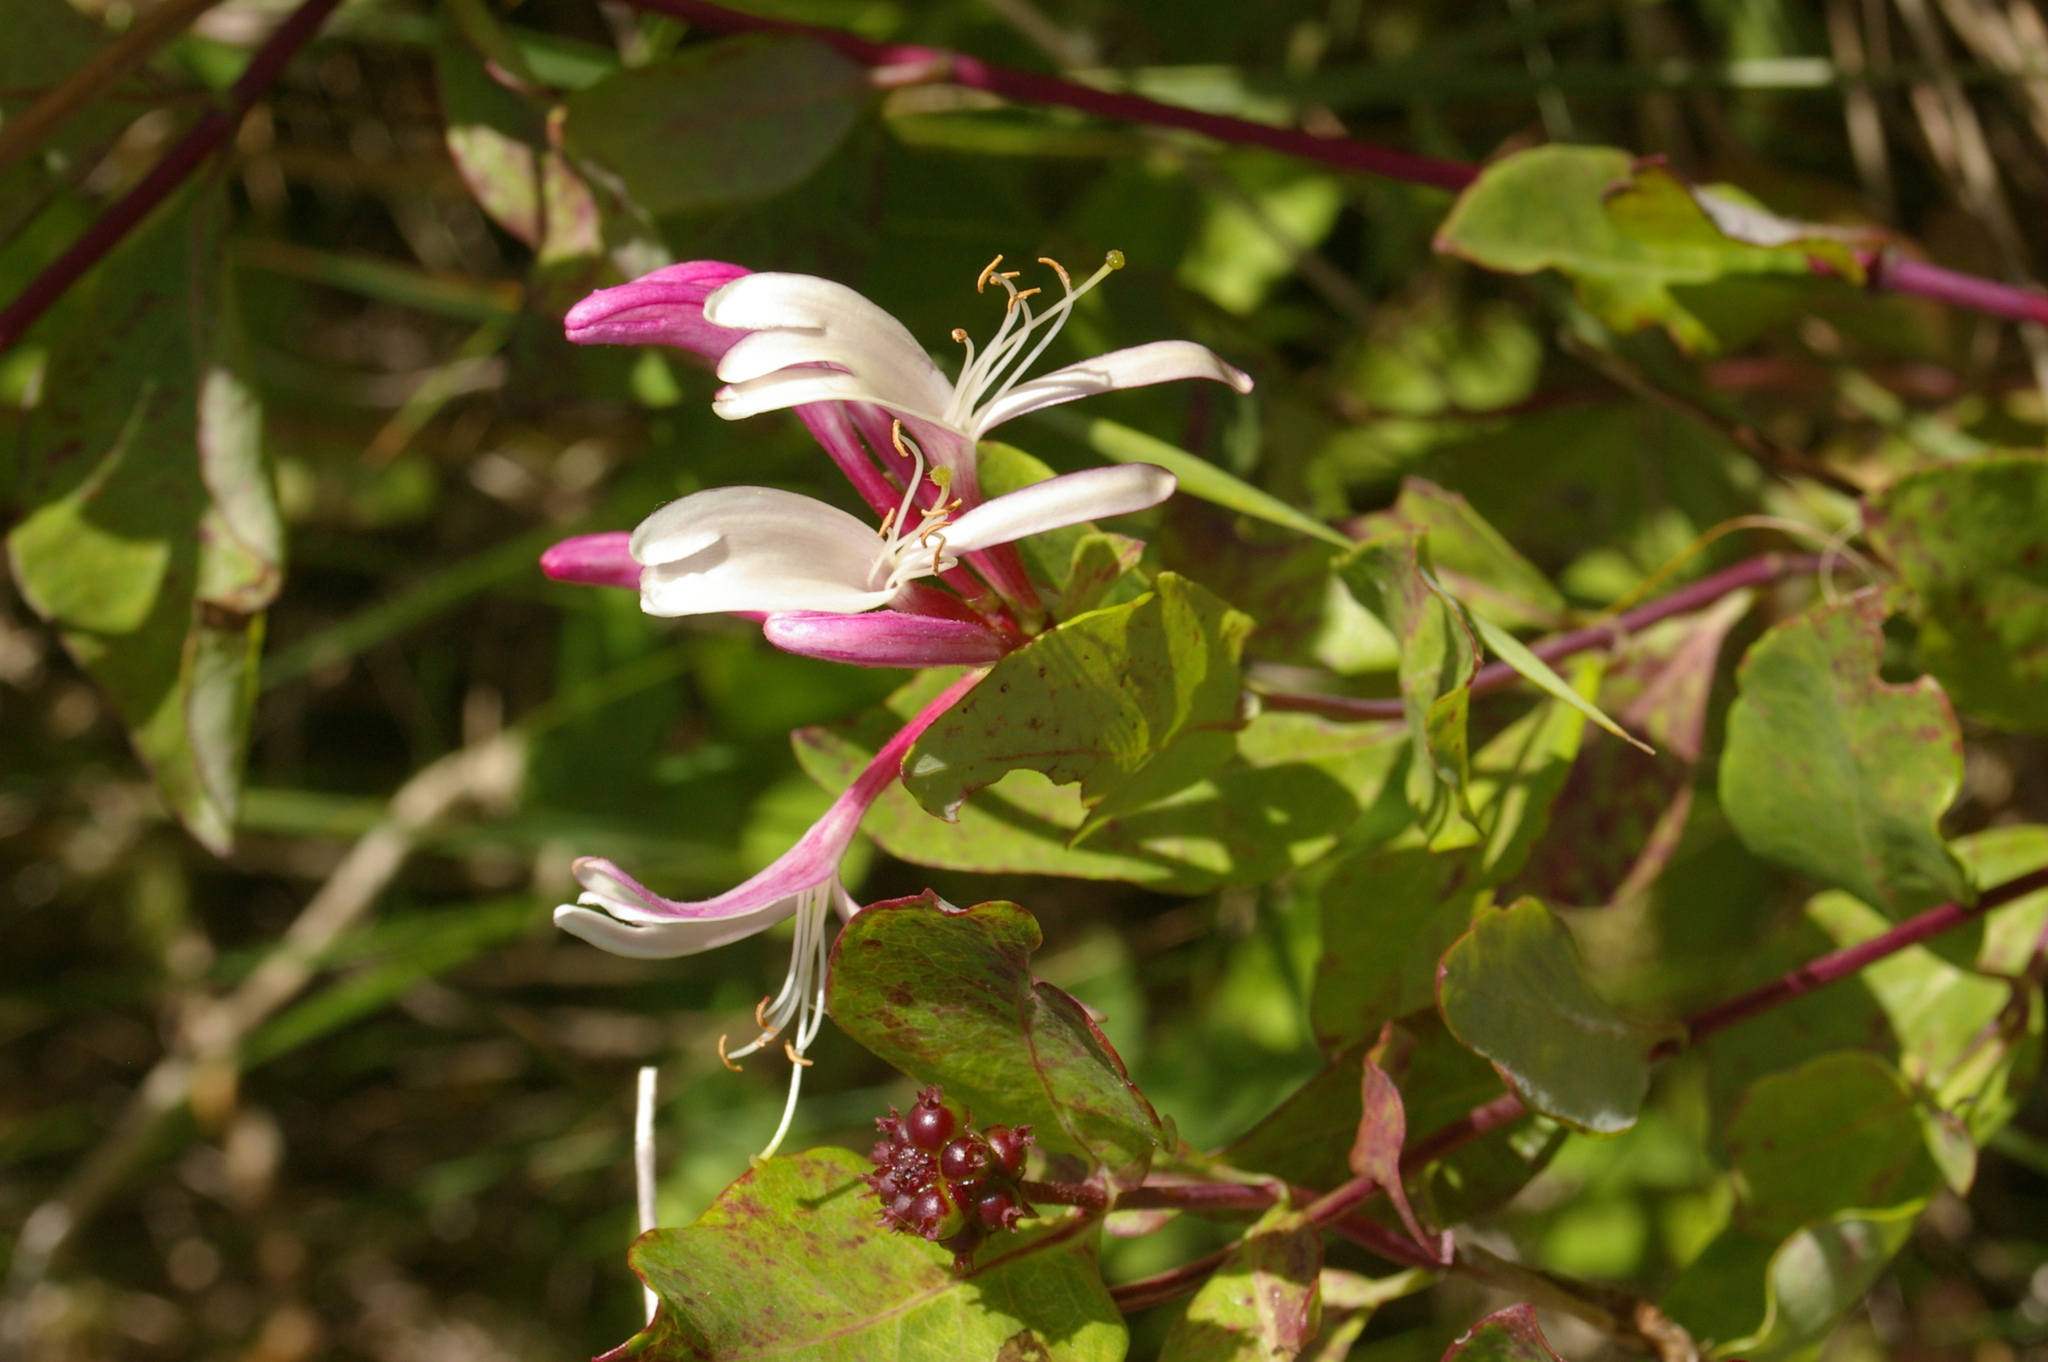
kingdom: Plantae
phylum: Tracheophyta
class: Magnoliopsida
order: Dipsacales
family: Caprifoliaceae
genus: Lonicera
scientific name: Lonicera periclymenum
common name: European honeysuckle
